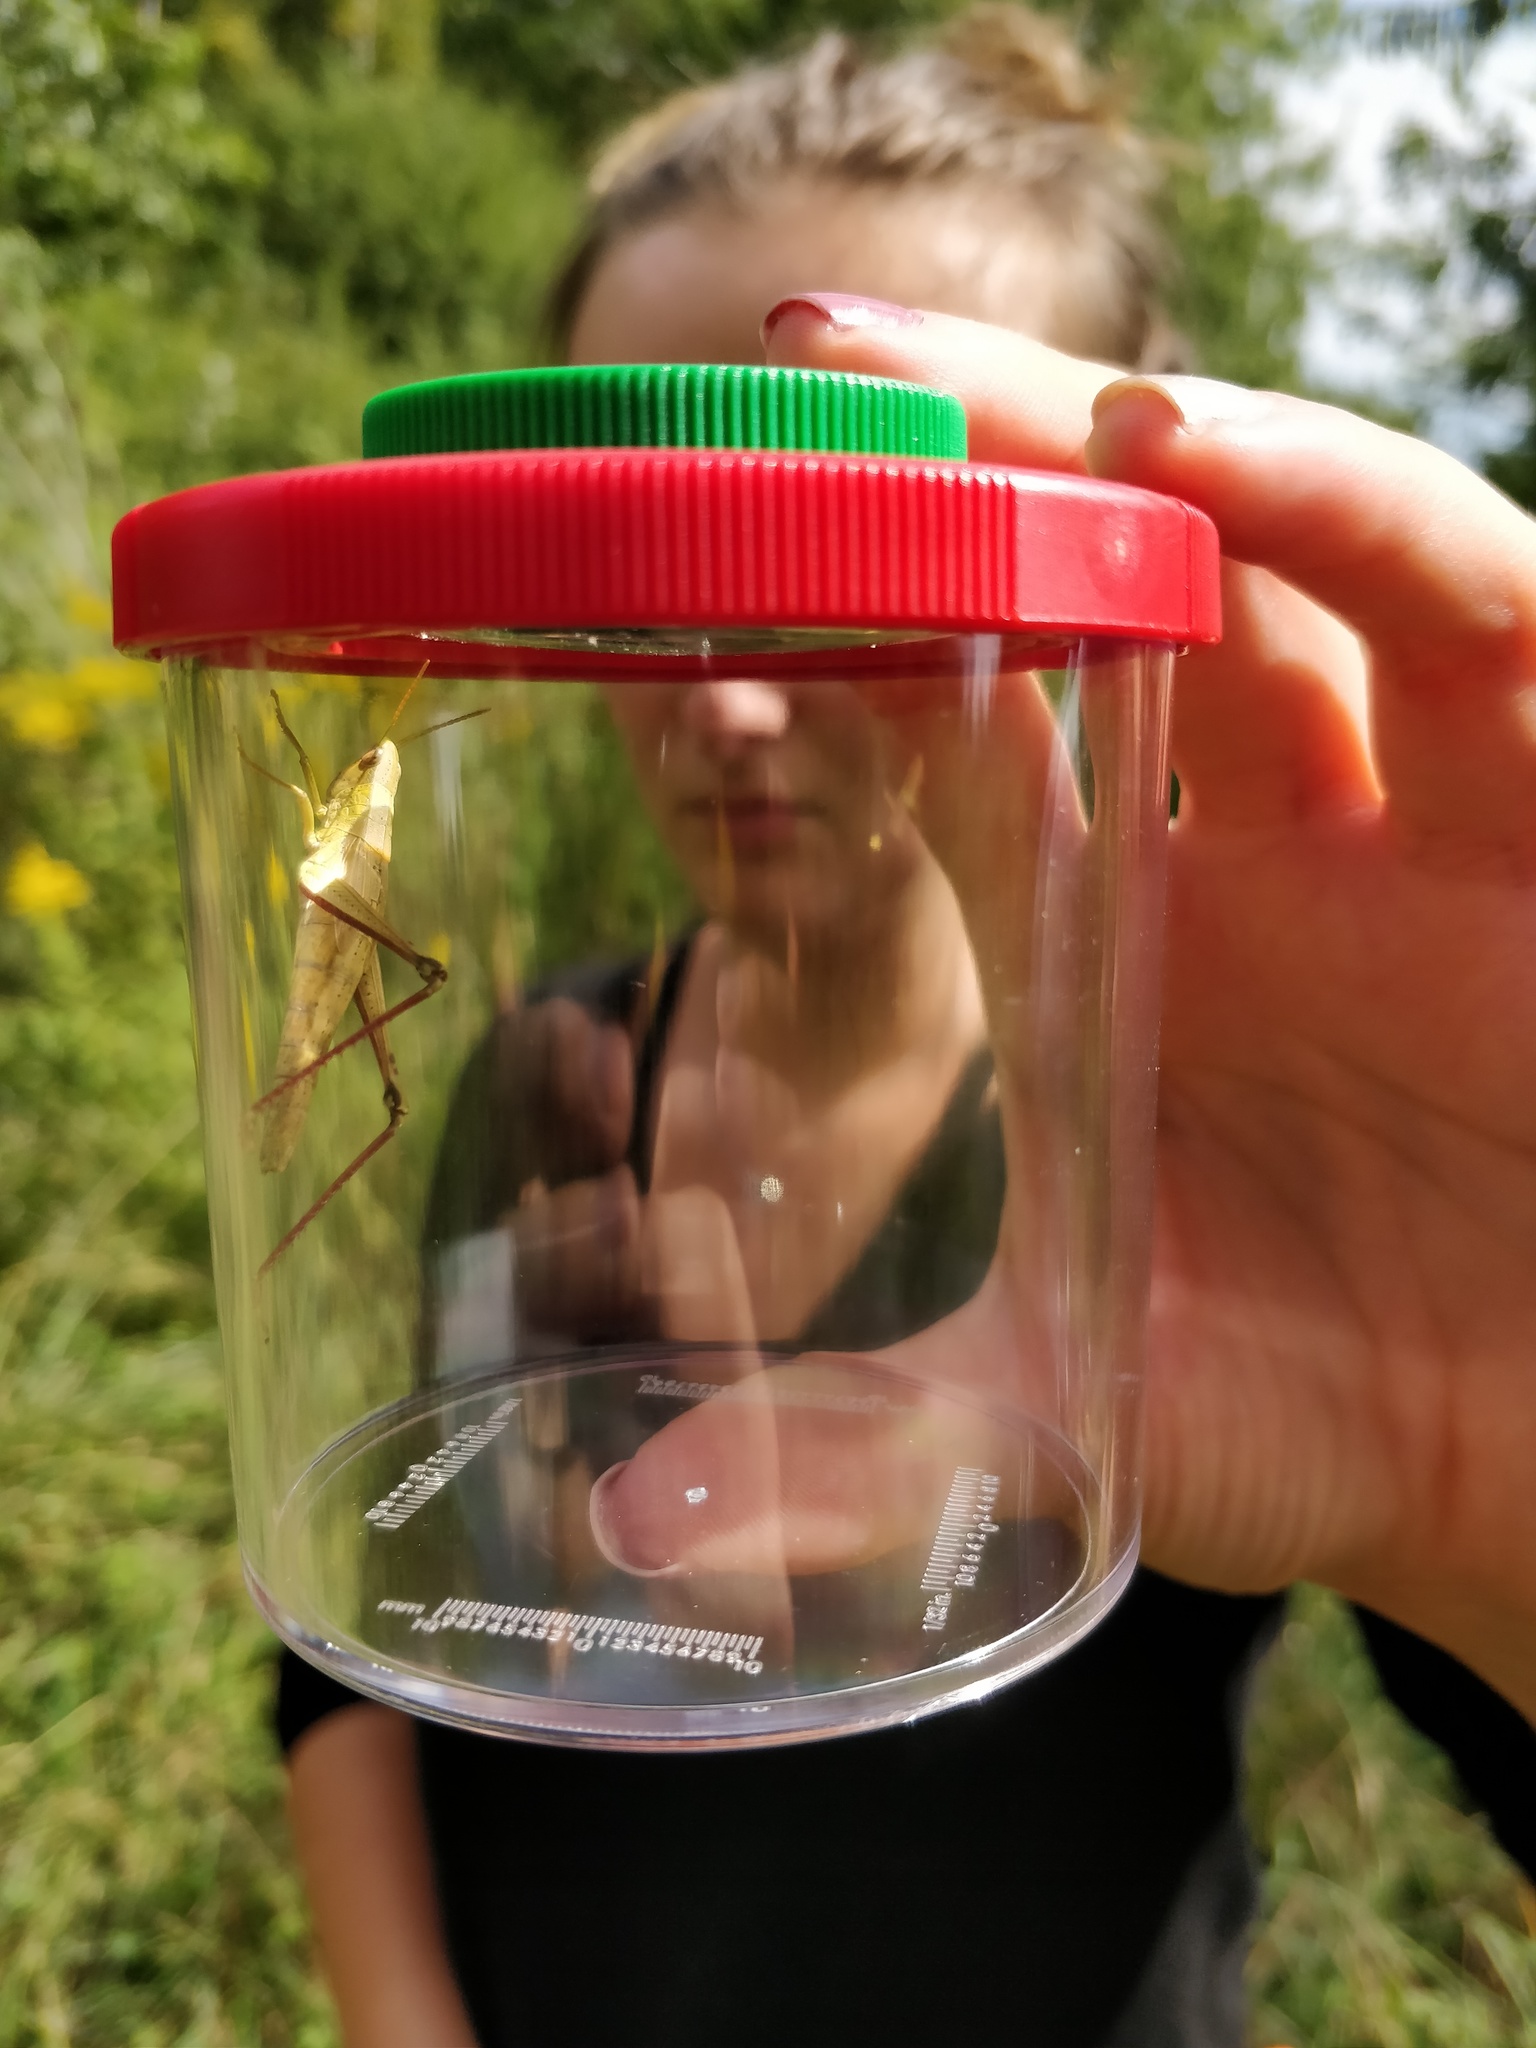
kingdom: Animalia
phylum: Arthropoda
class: Insecta
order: Orthoptera
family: Acrididae
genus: Chrysochraon
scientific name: Chrysochraon dispar
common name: Large gold grasshopper
